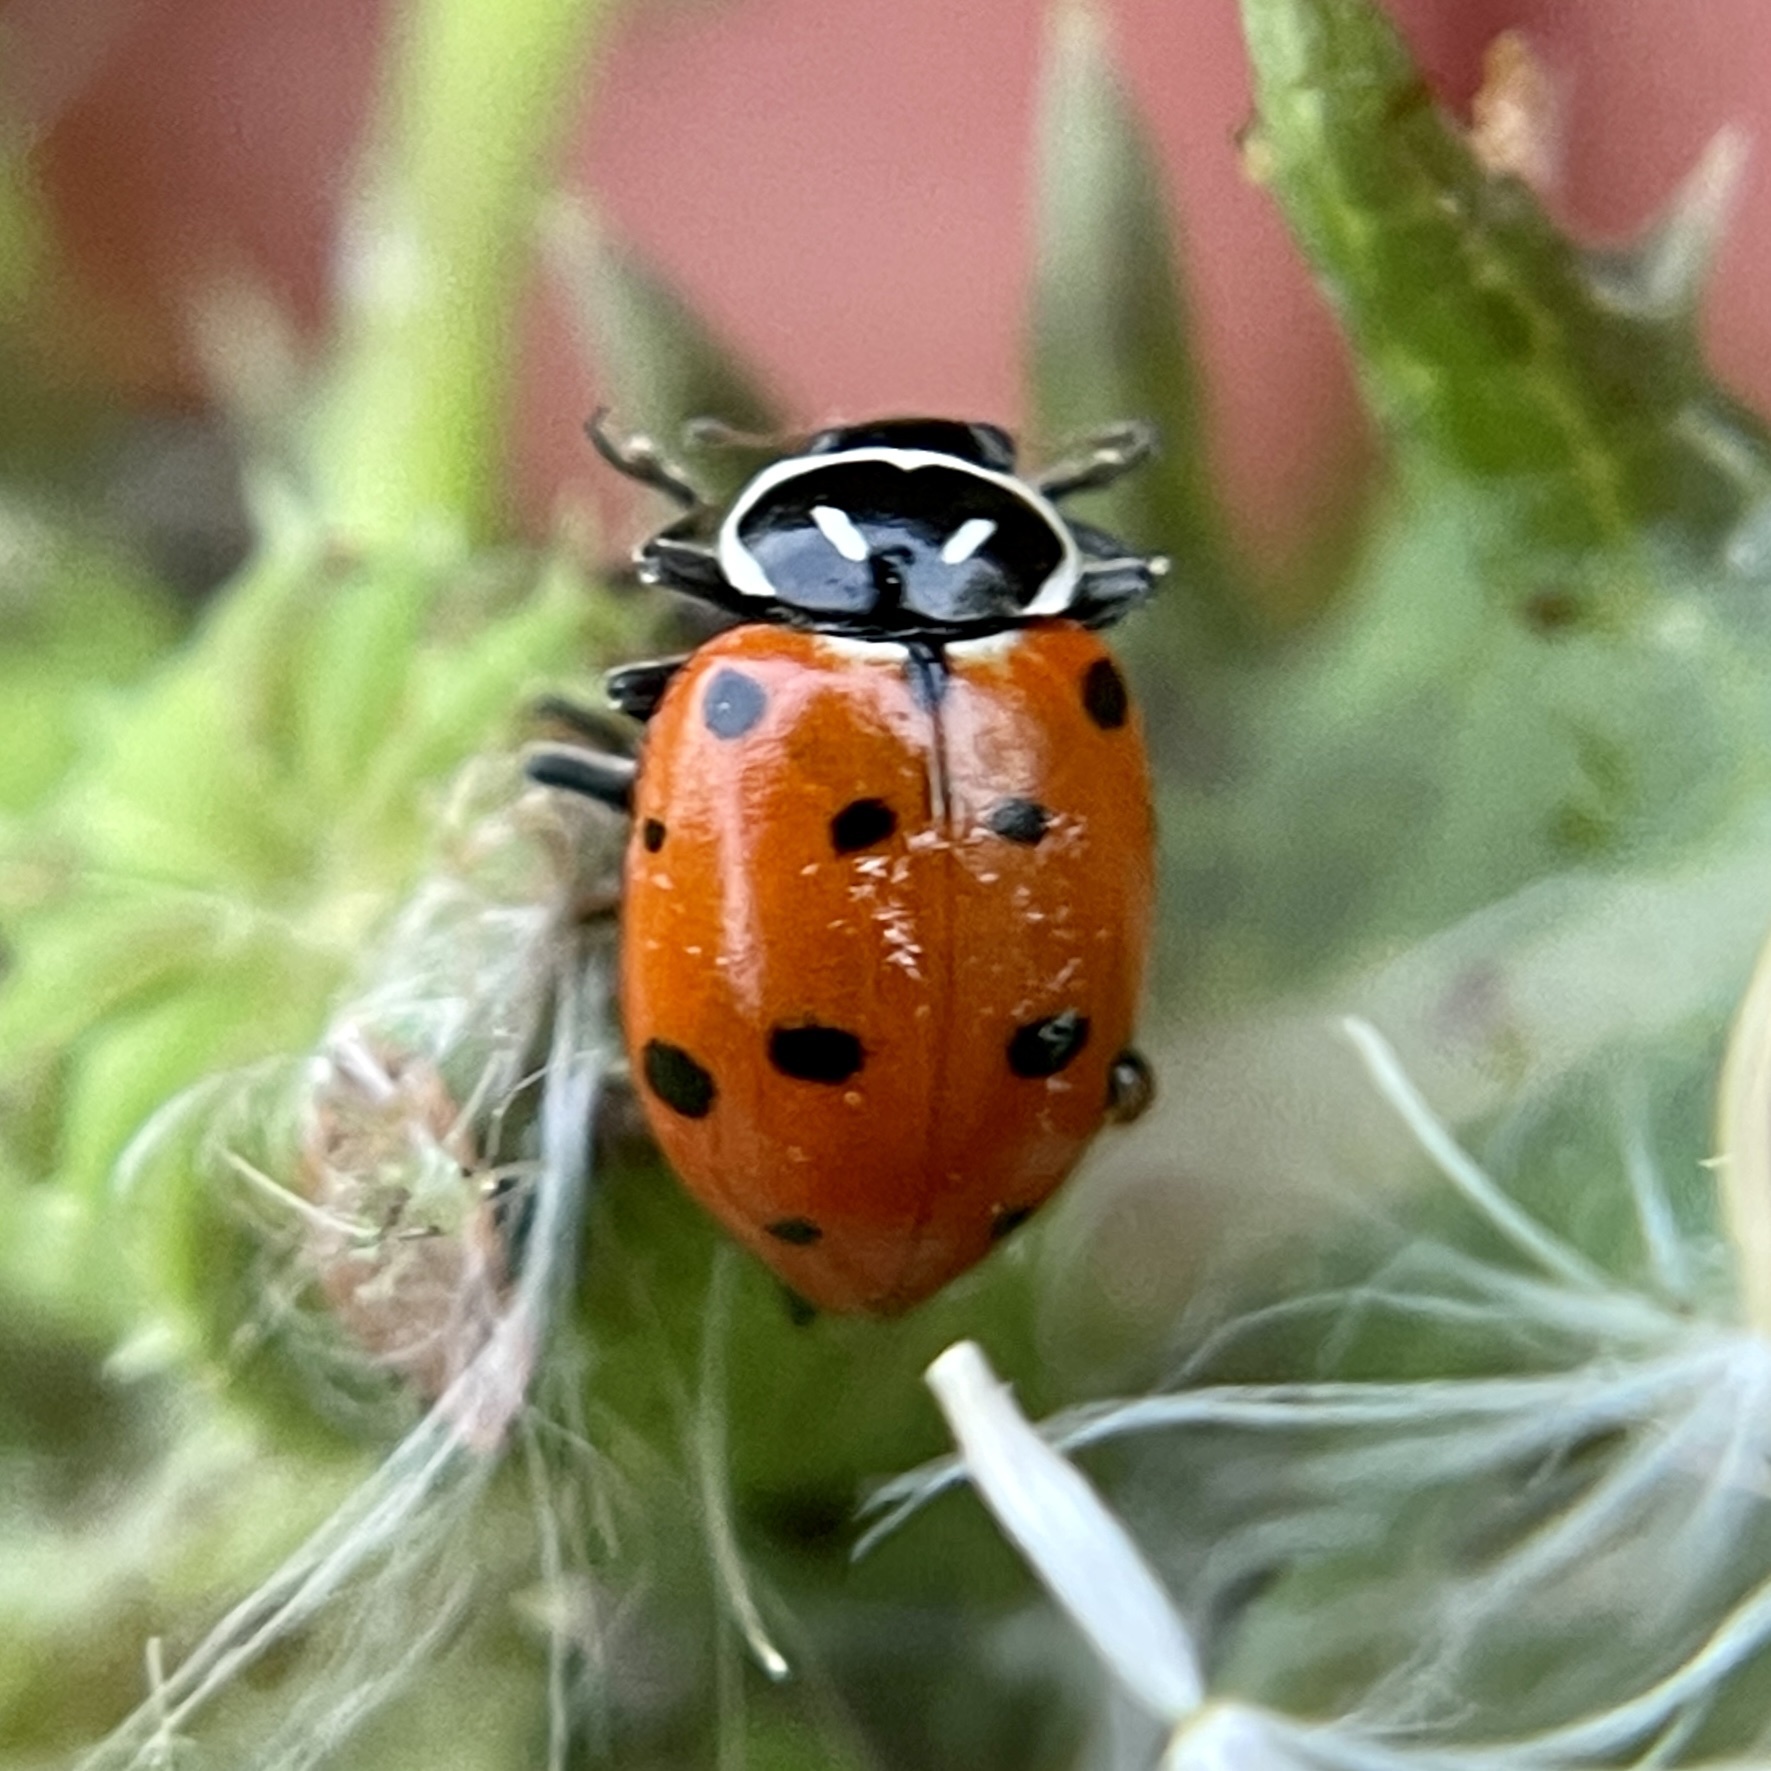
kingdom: Animalia
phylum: Arthropoda
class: Insecta
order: Coleoptera
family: Coccinellidae
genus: Hippodamia
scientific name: Hippodamia convergens
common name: Convergent lady beetle
